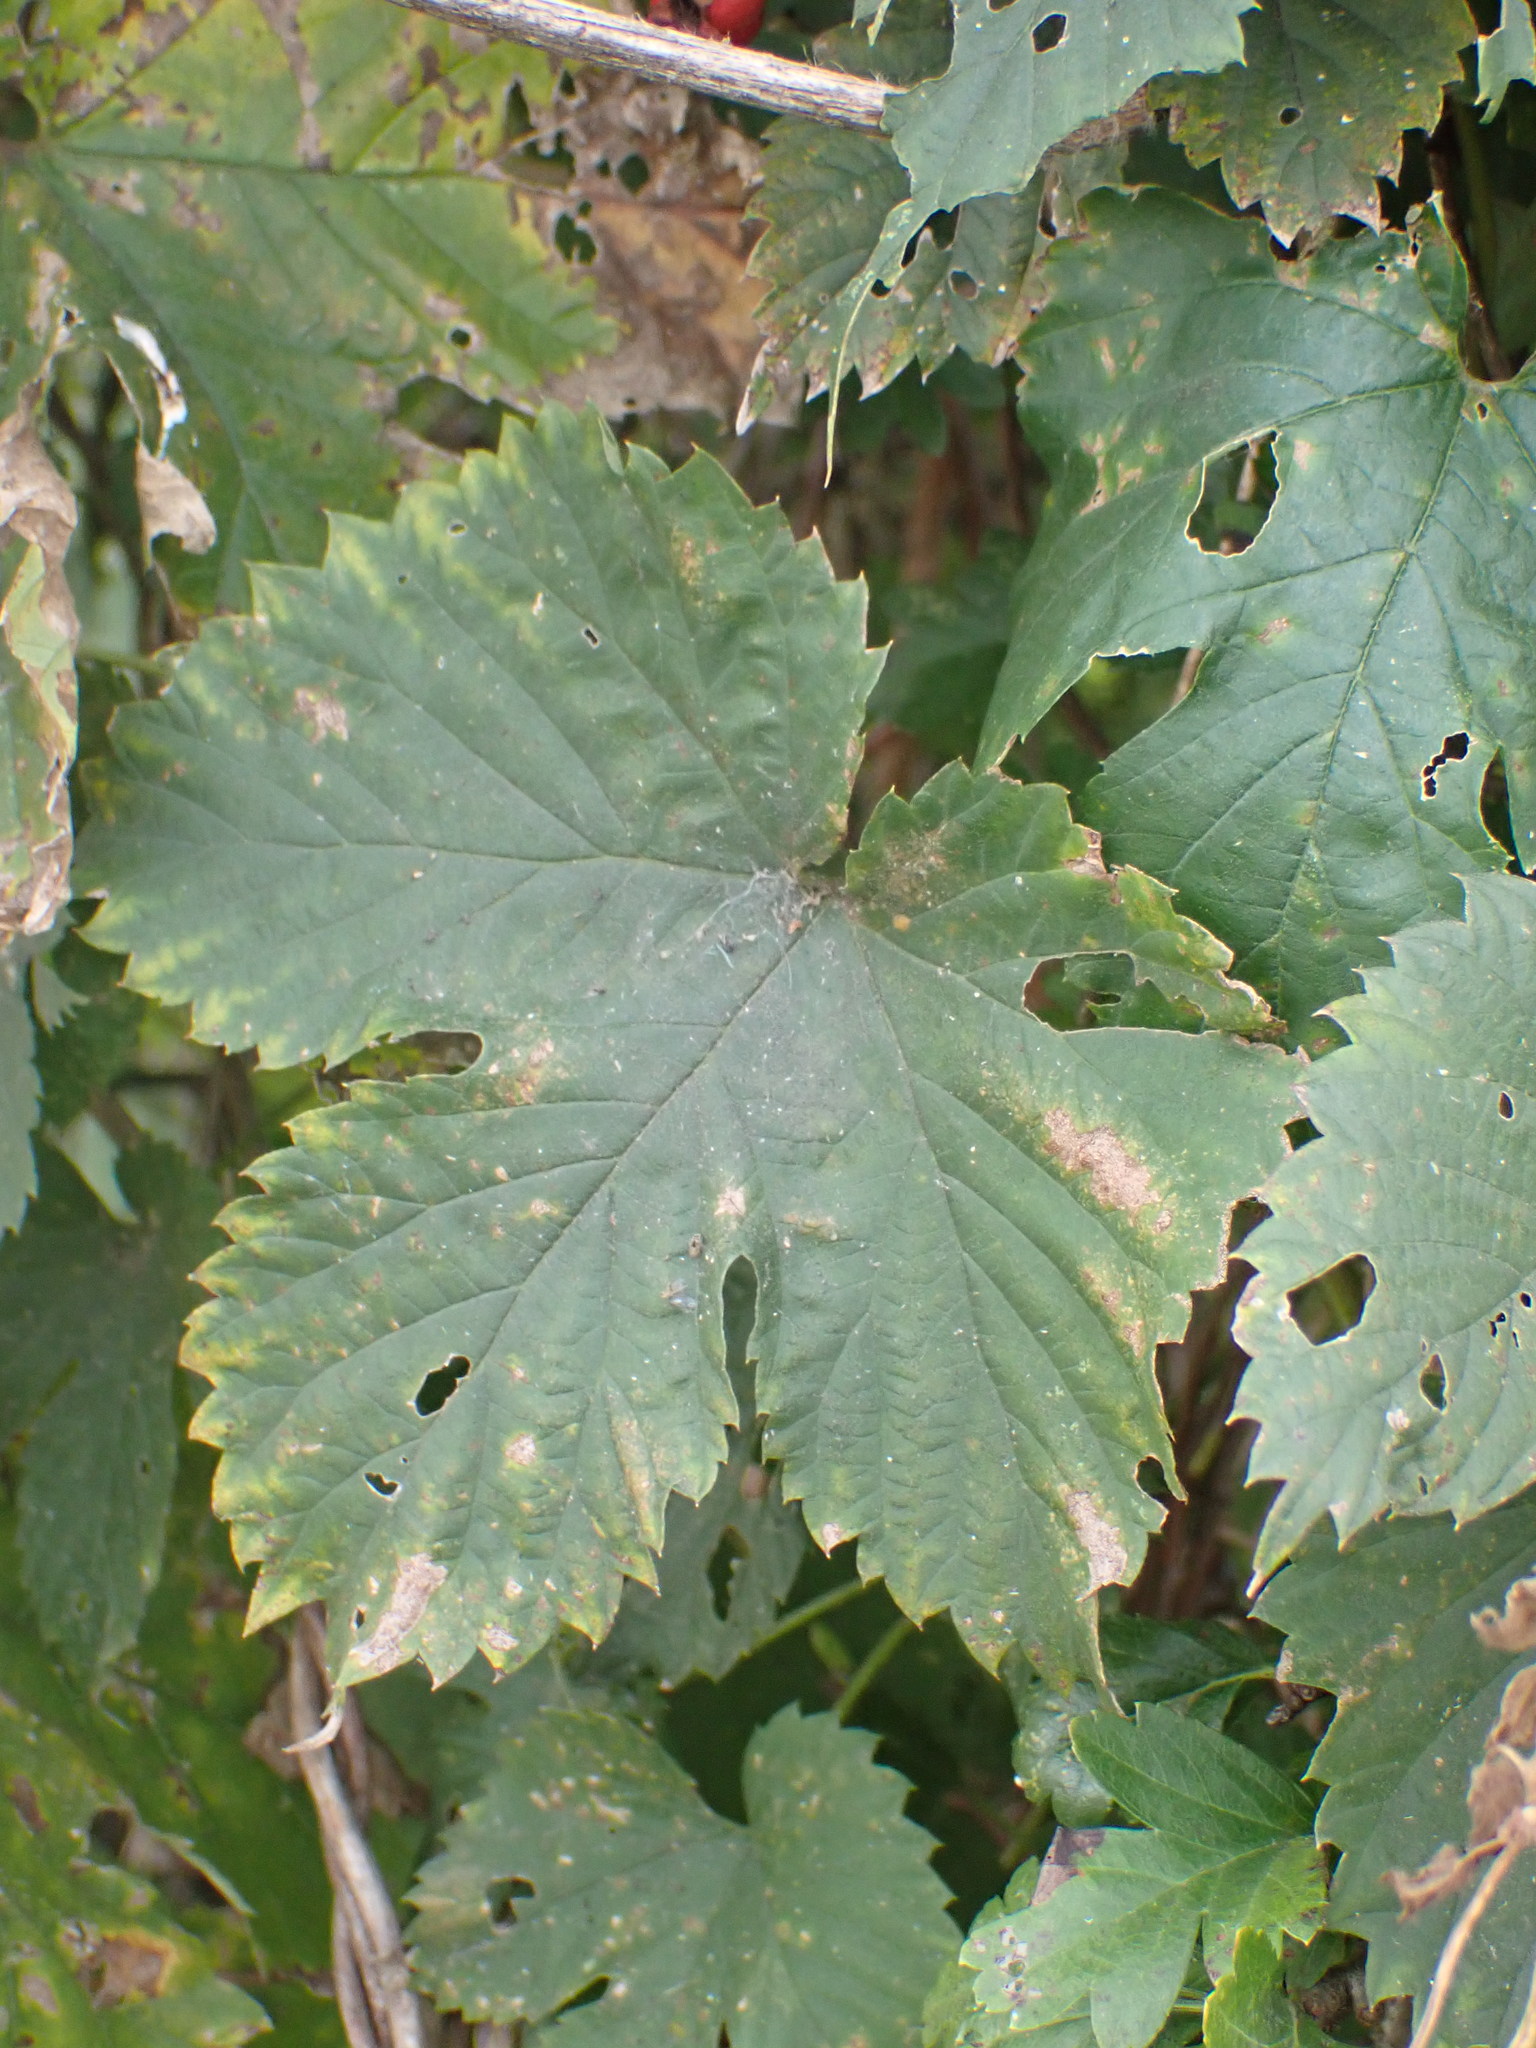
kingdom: Plantae
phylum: Tracheophyta
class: Magnoliopsida
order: Rosales
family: Cannabaceae
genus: Humulus
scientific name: Humulus lupulus
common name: Hop
